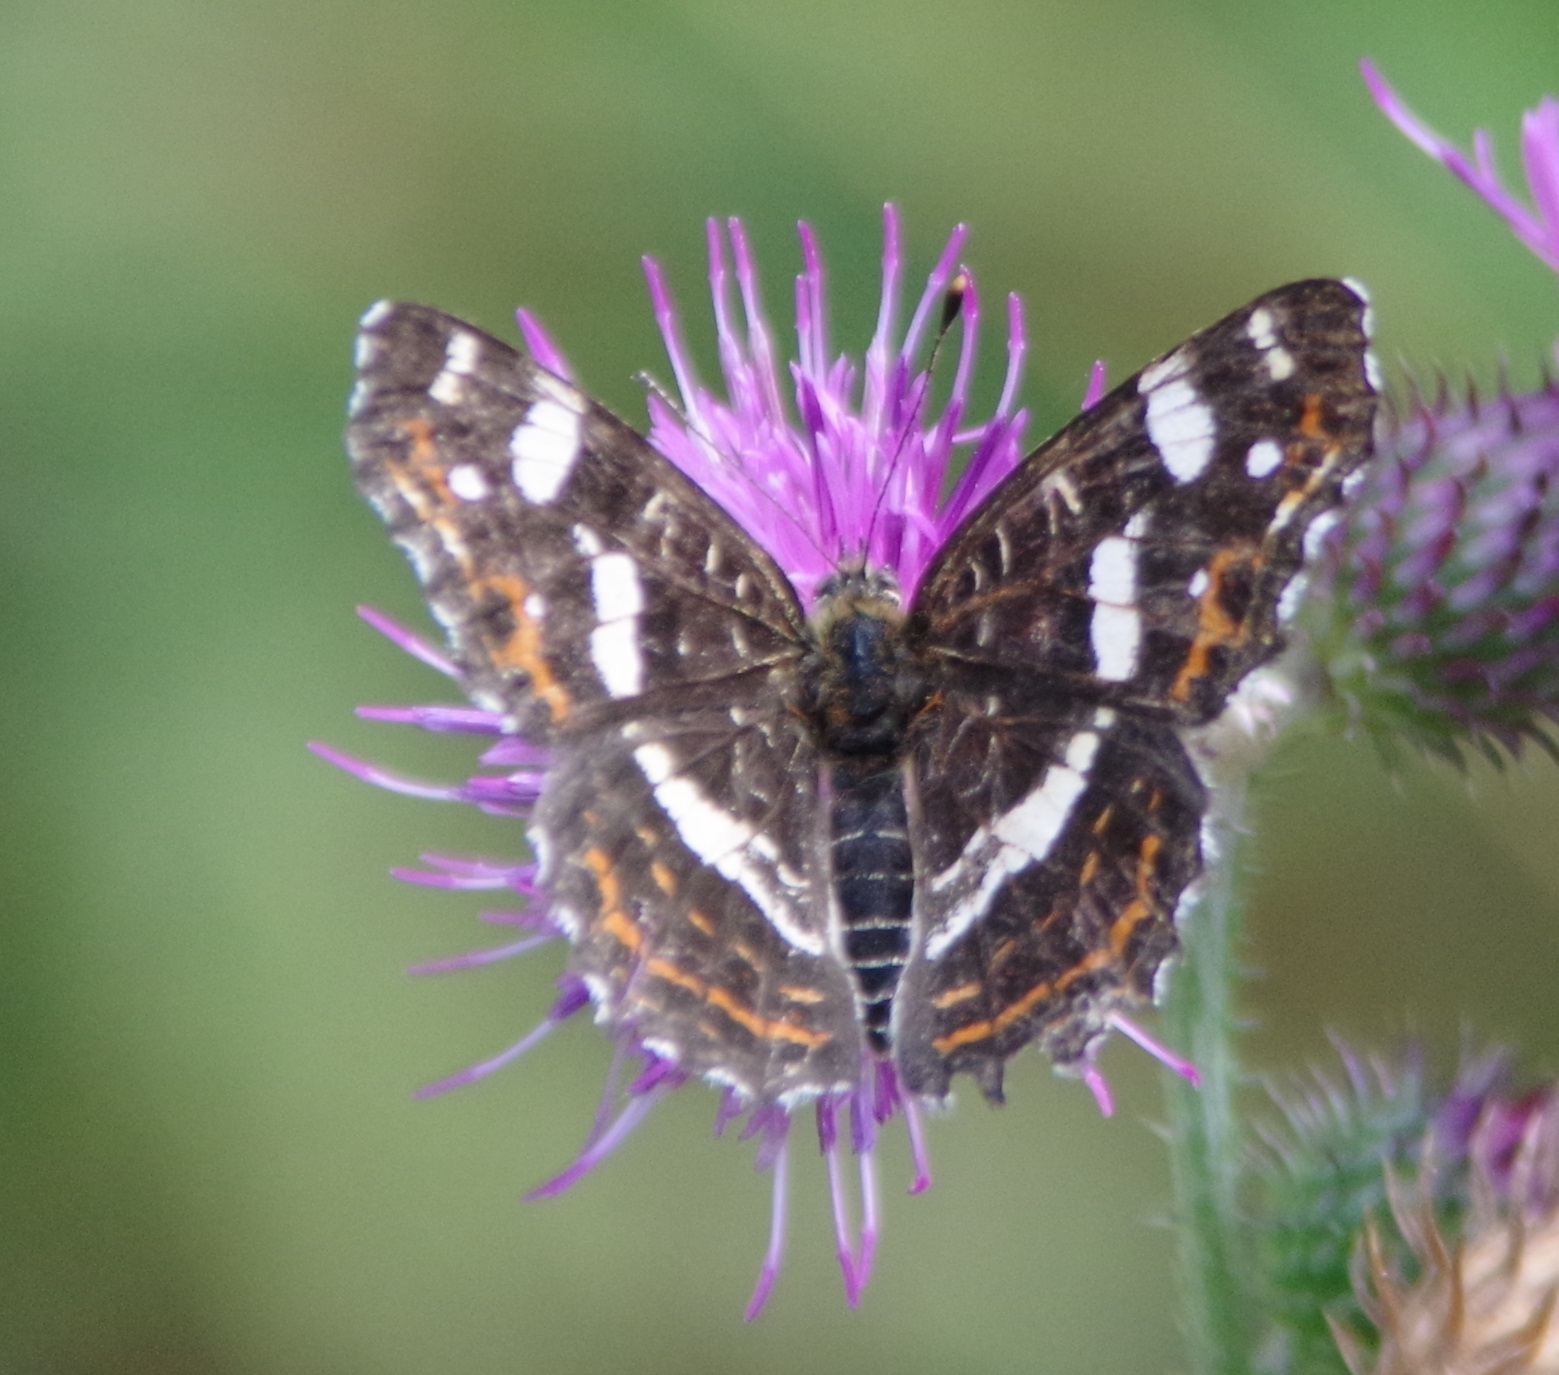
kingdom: Animalia
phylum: Arthropoda
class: Insecta
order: Lepidoptera
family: Nymphalidae
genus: Araschnia
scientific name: Araschnia levana
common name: Map butterfly
